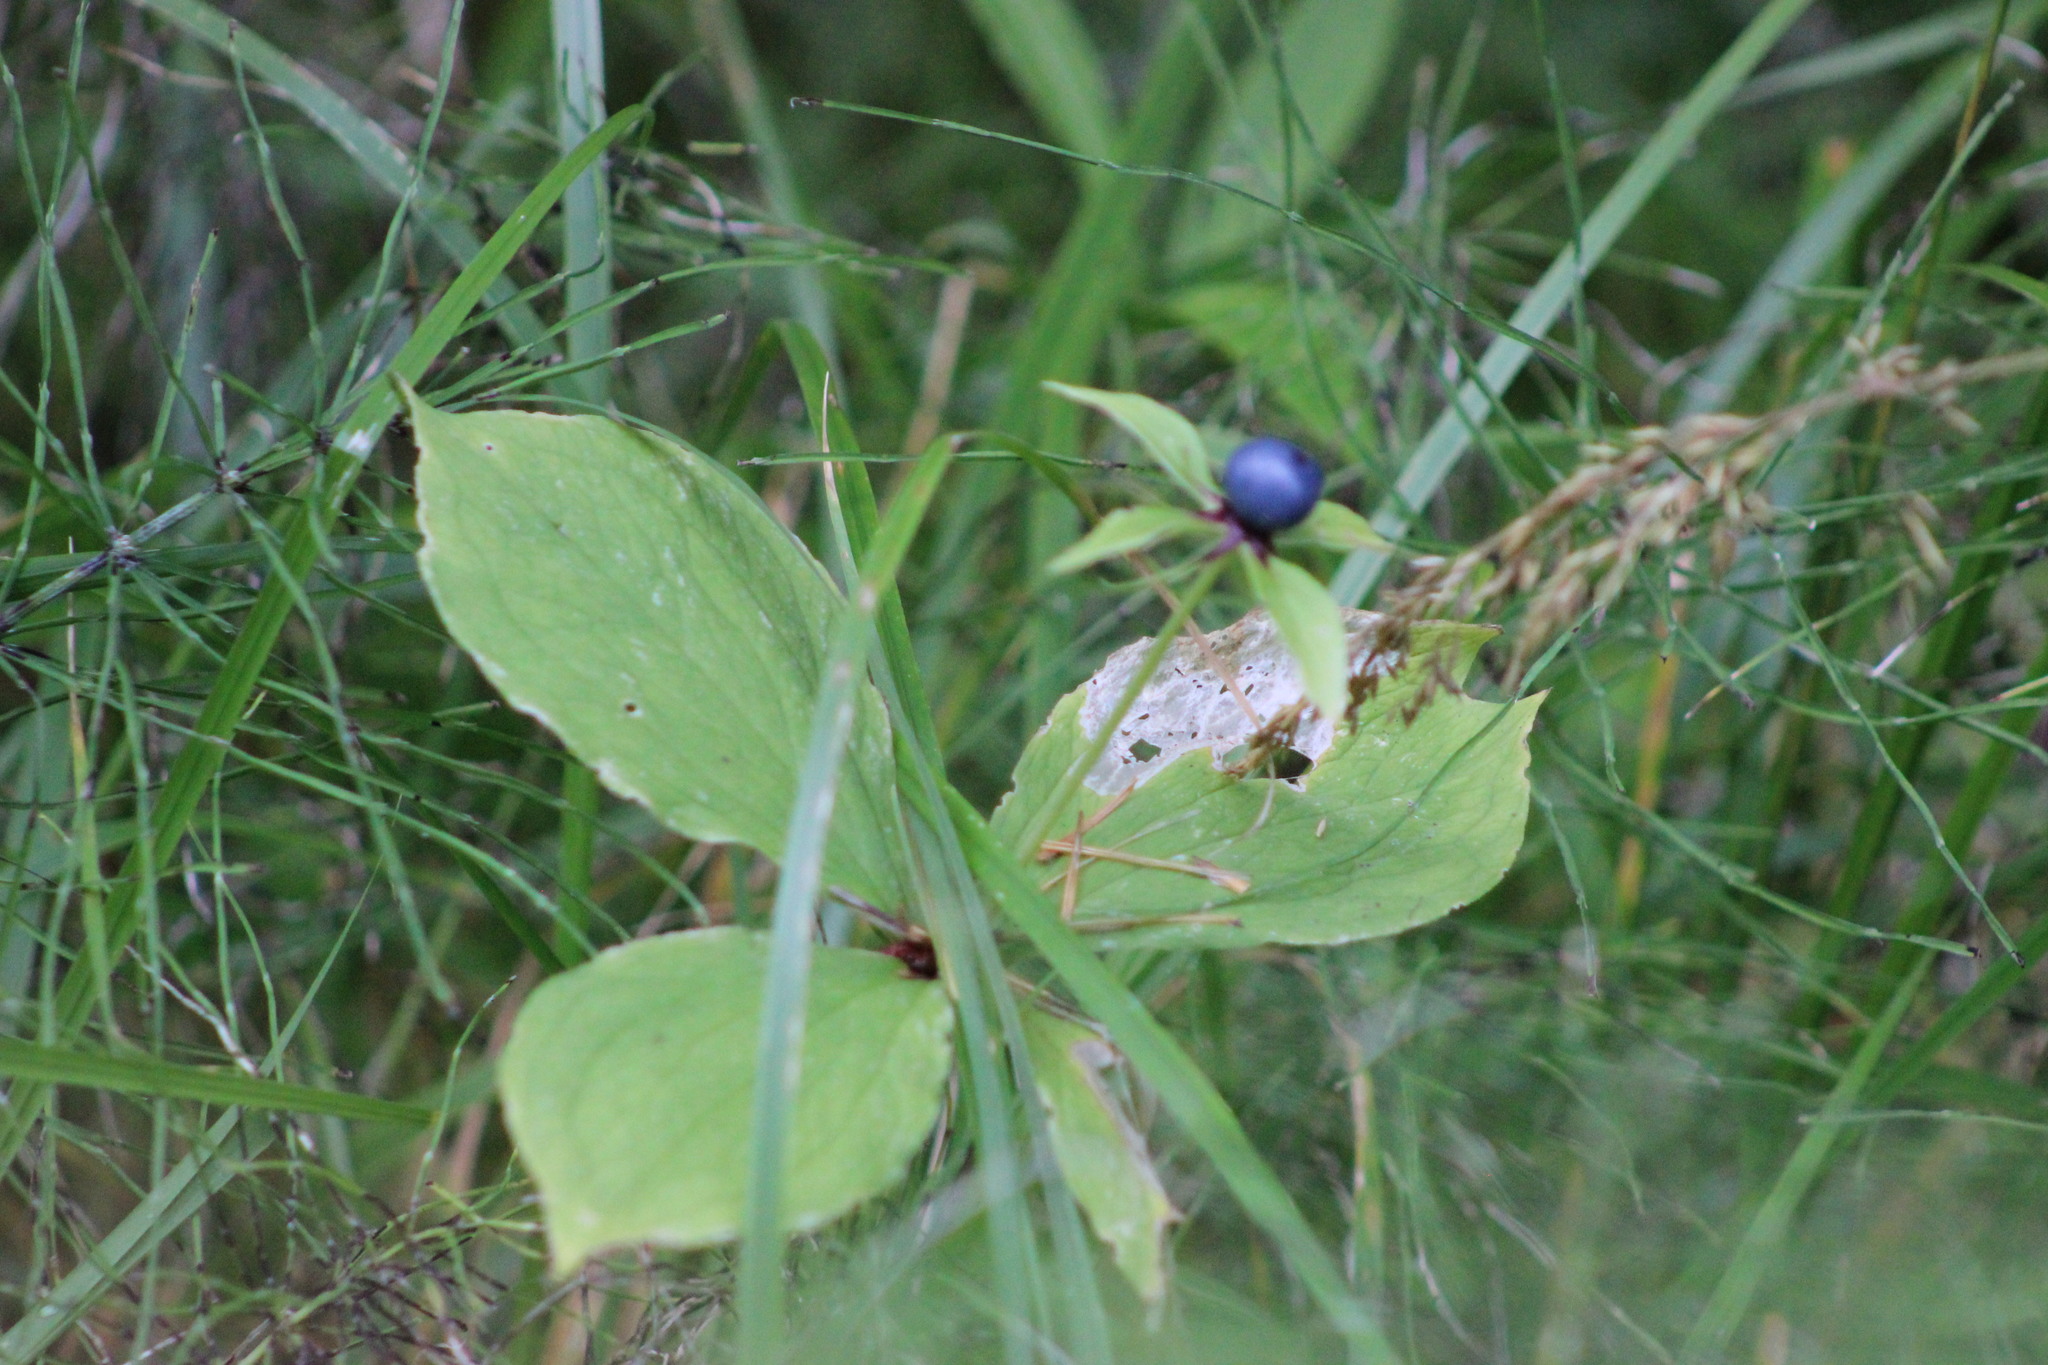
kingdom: Plantae
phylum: Tracheophyta
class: Liliopsida
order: Liliales
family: Melanthiaceae
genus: Paris
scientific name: Paris quadrifolia
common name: Herb-paris
